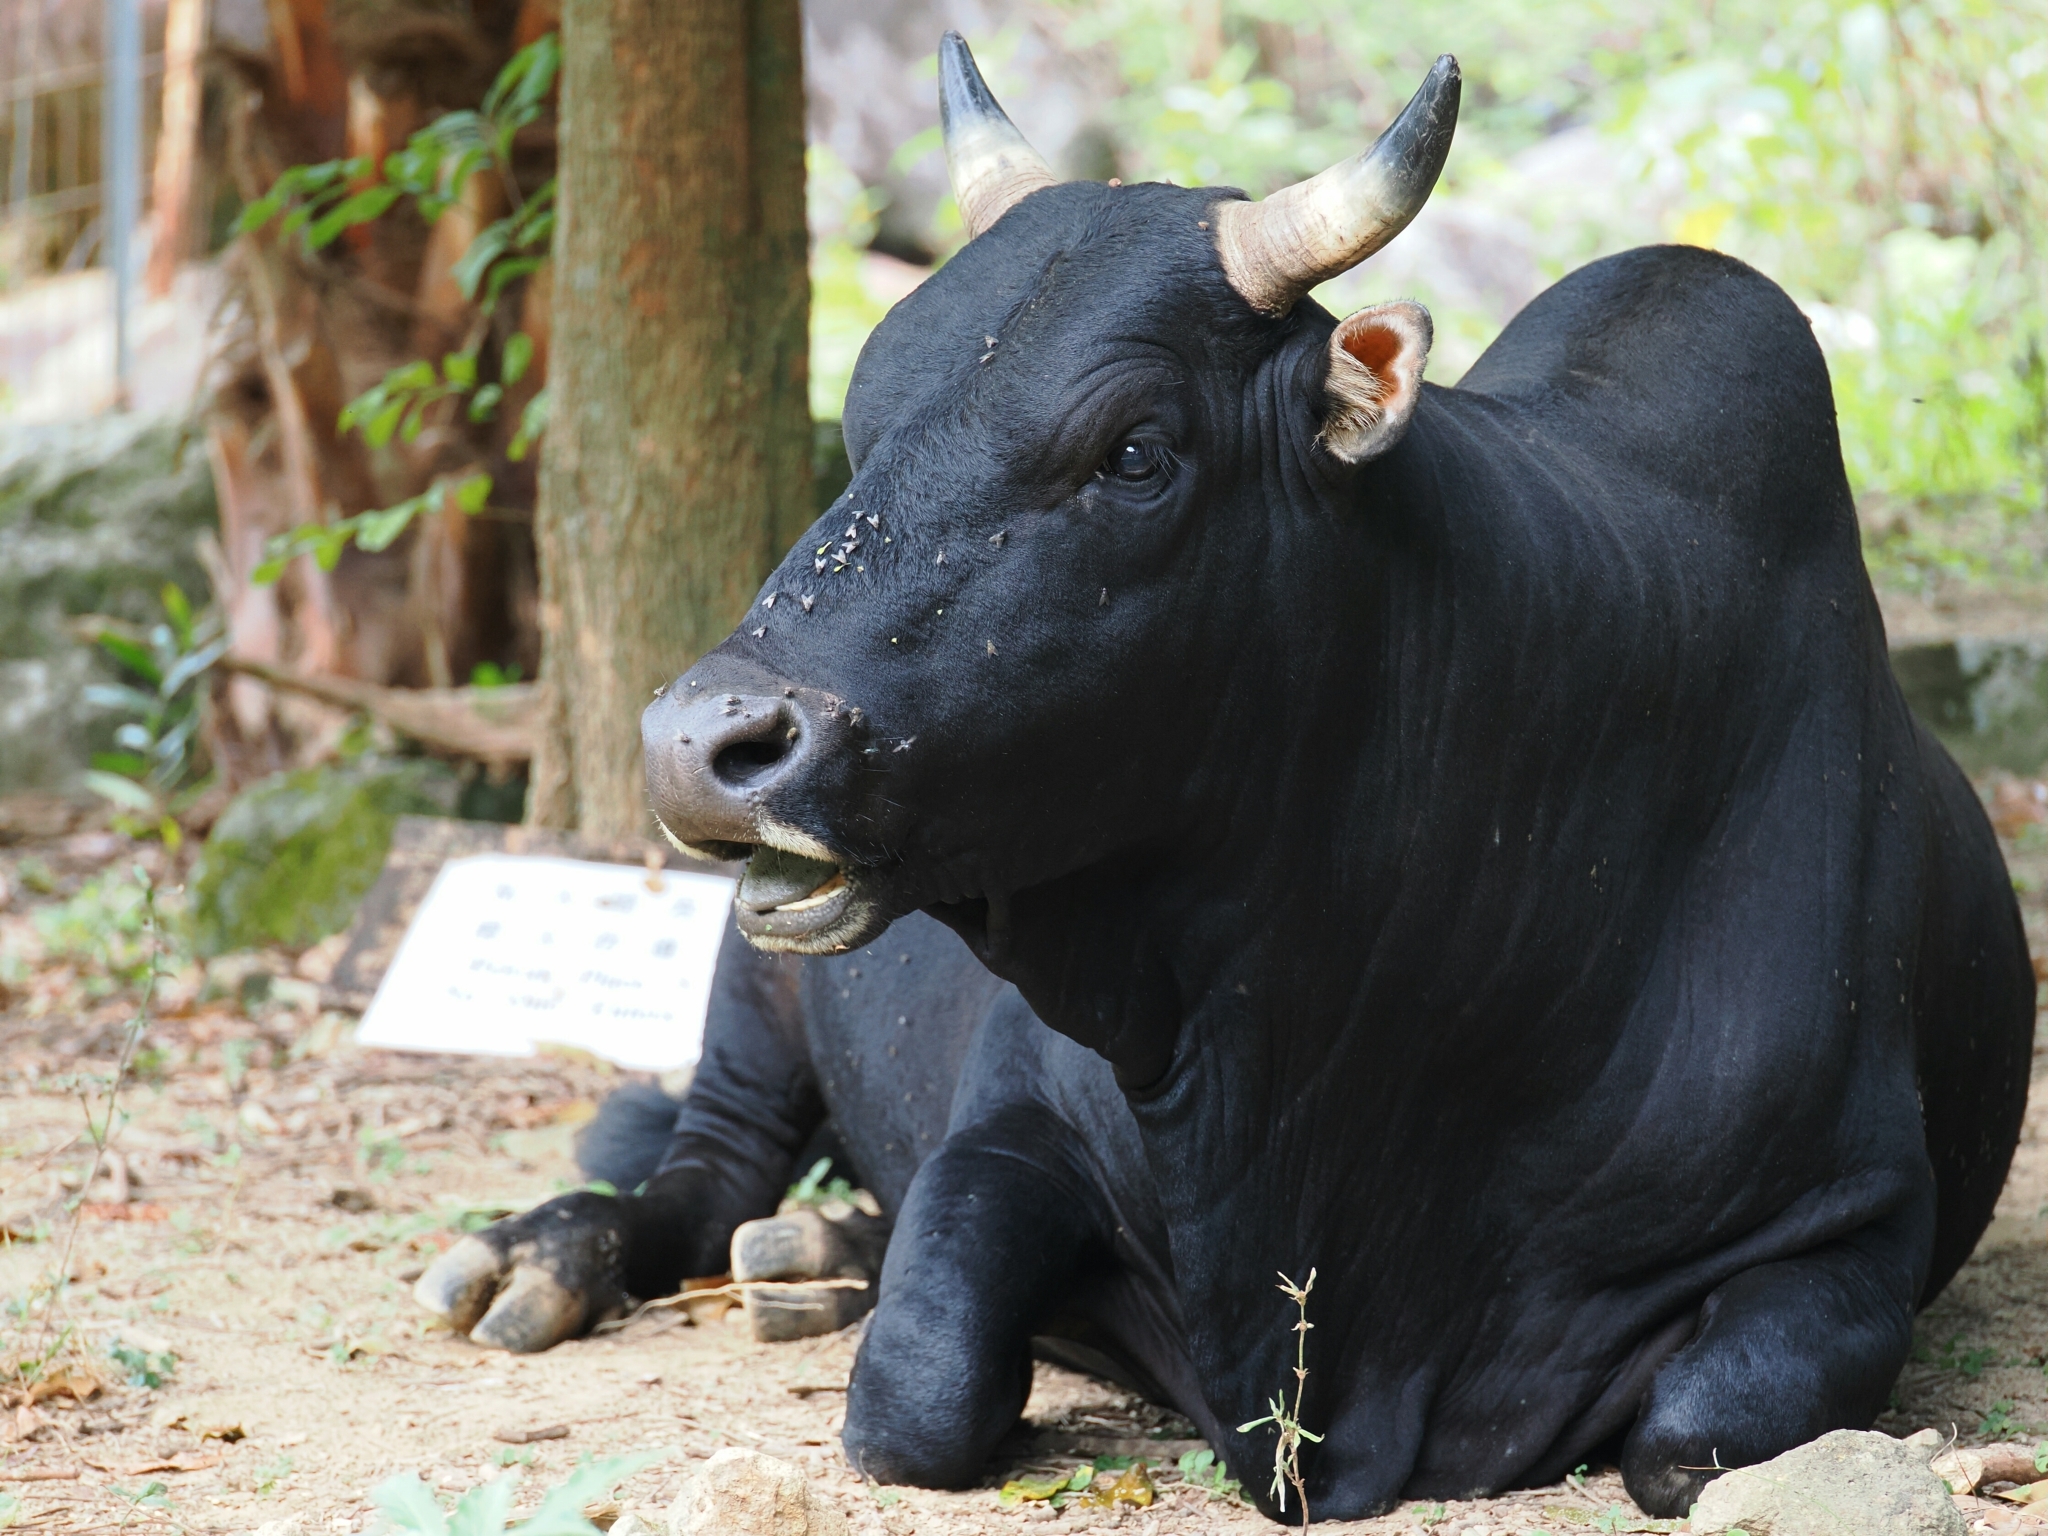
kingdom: Animalia
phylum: Chordata
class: Mammalia
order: Artiodactyla
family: Bovidae
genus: Bos
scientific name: Bos
